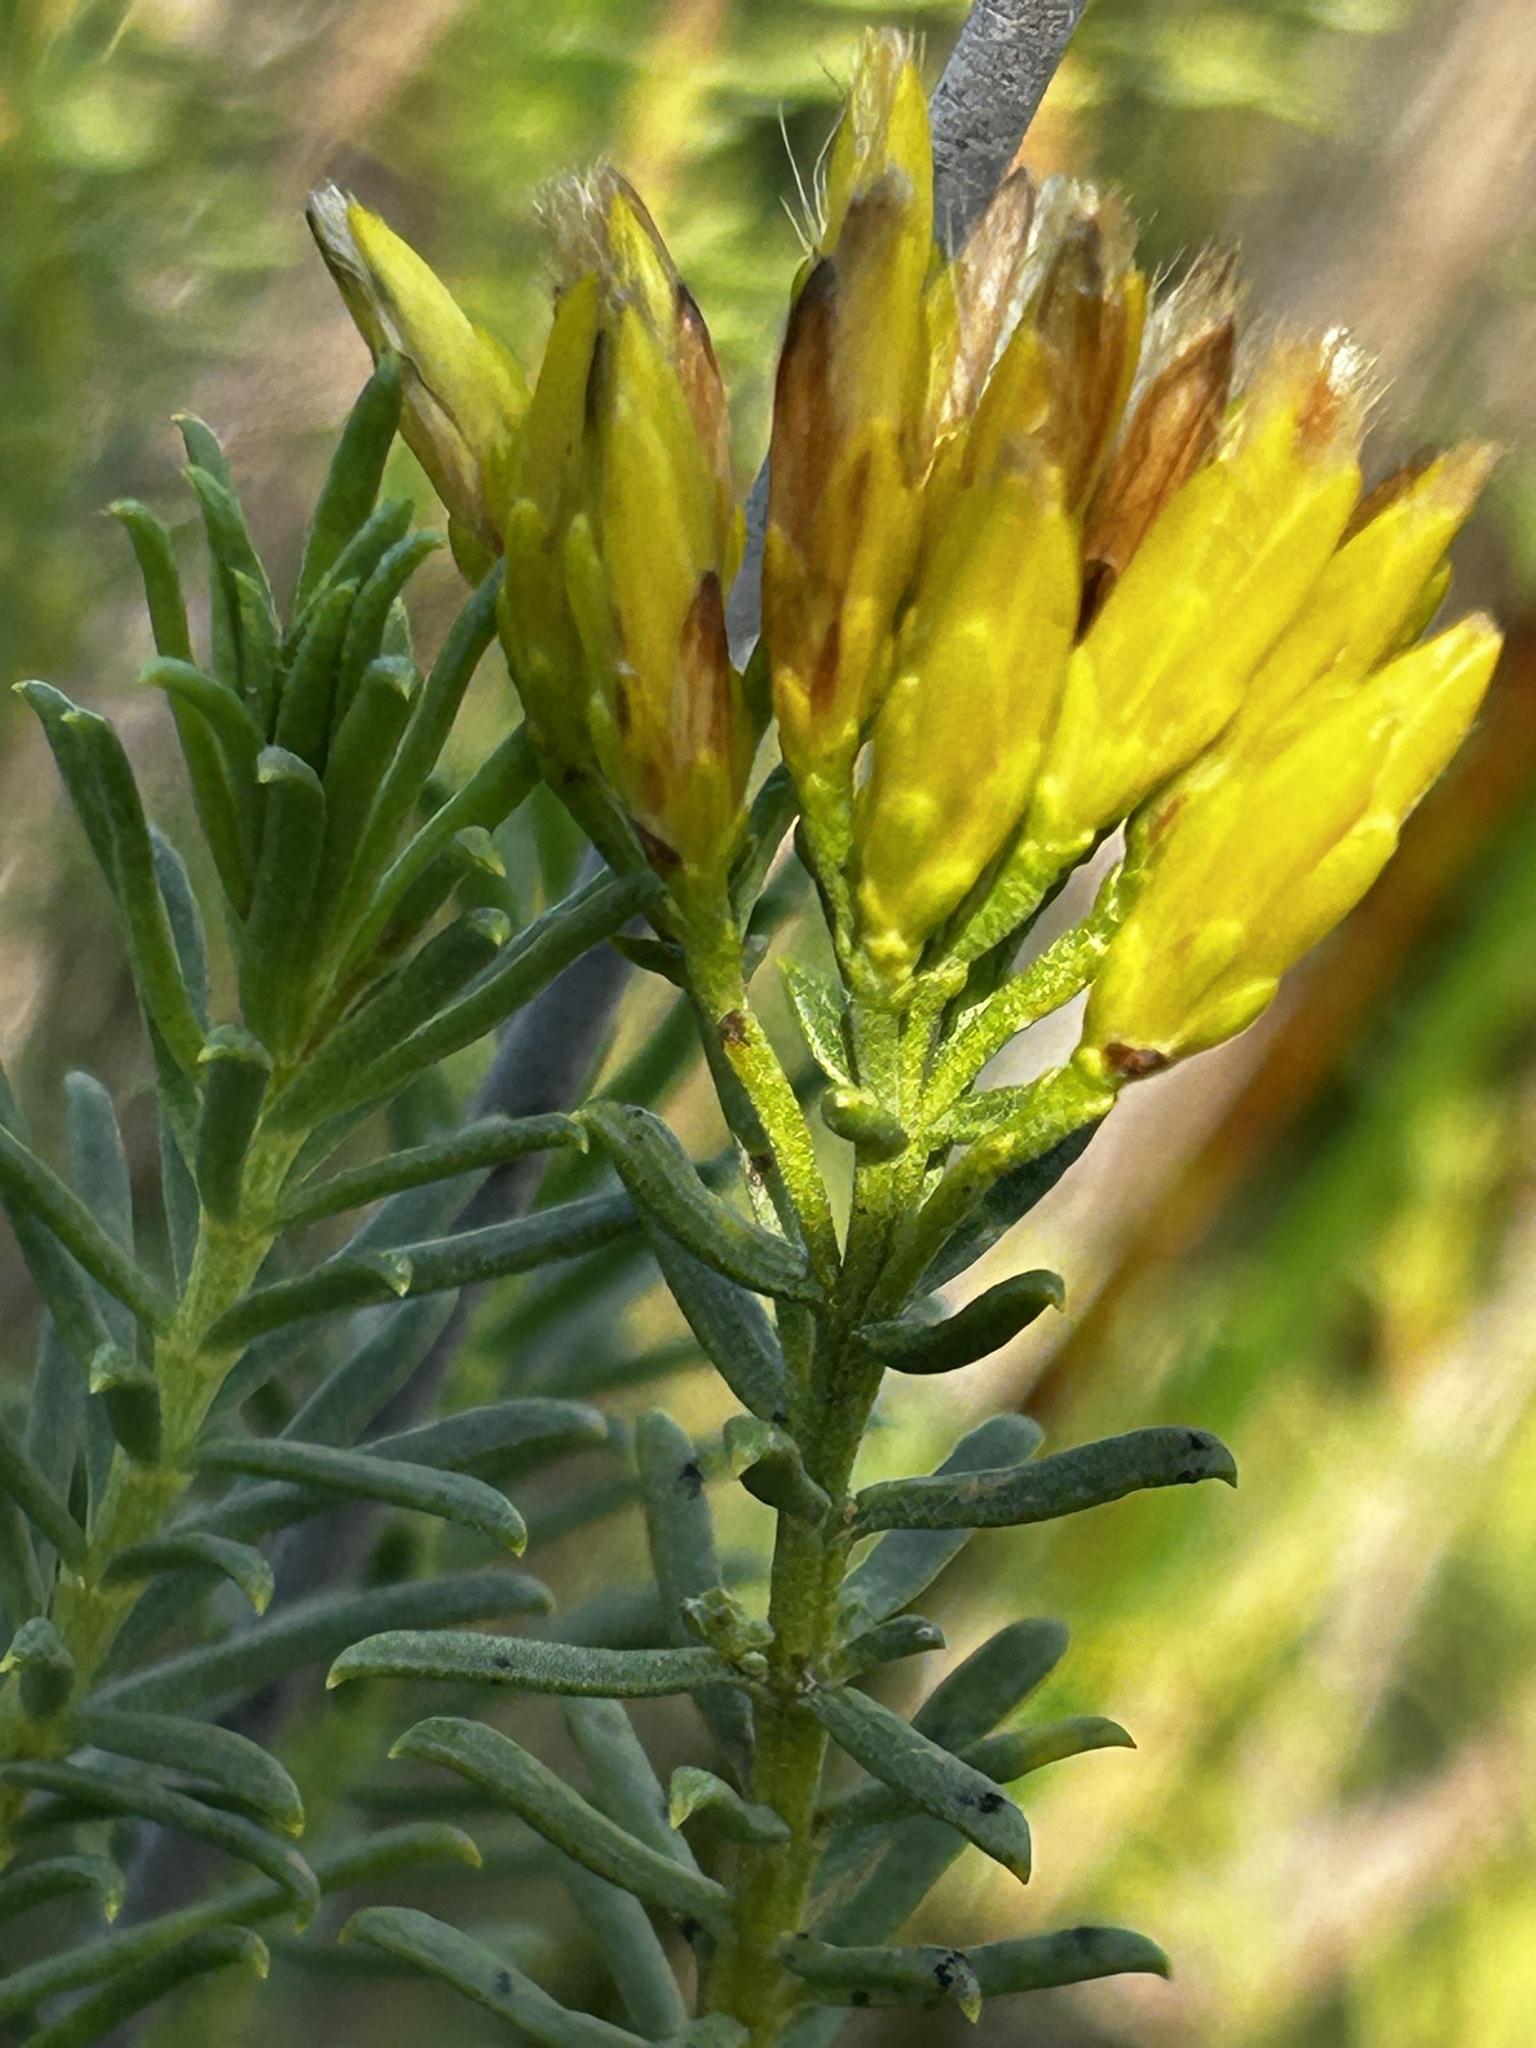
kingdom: Plantae
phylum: Tracheophyta
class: Magnoliopsida
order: Asterales
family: Asteraceae
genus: Pteronia
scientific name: Pteronia uncinata
